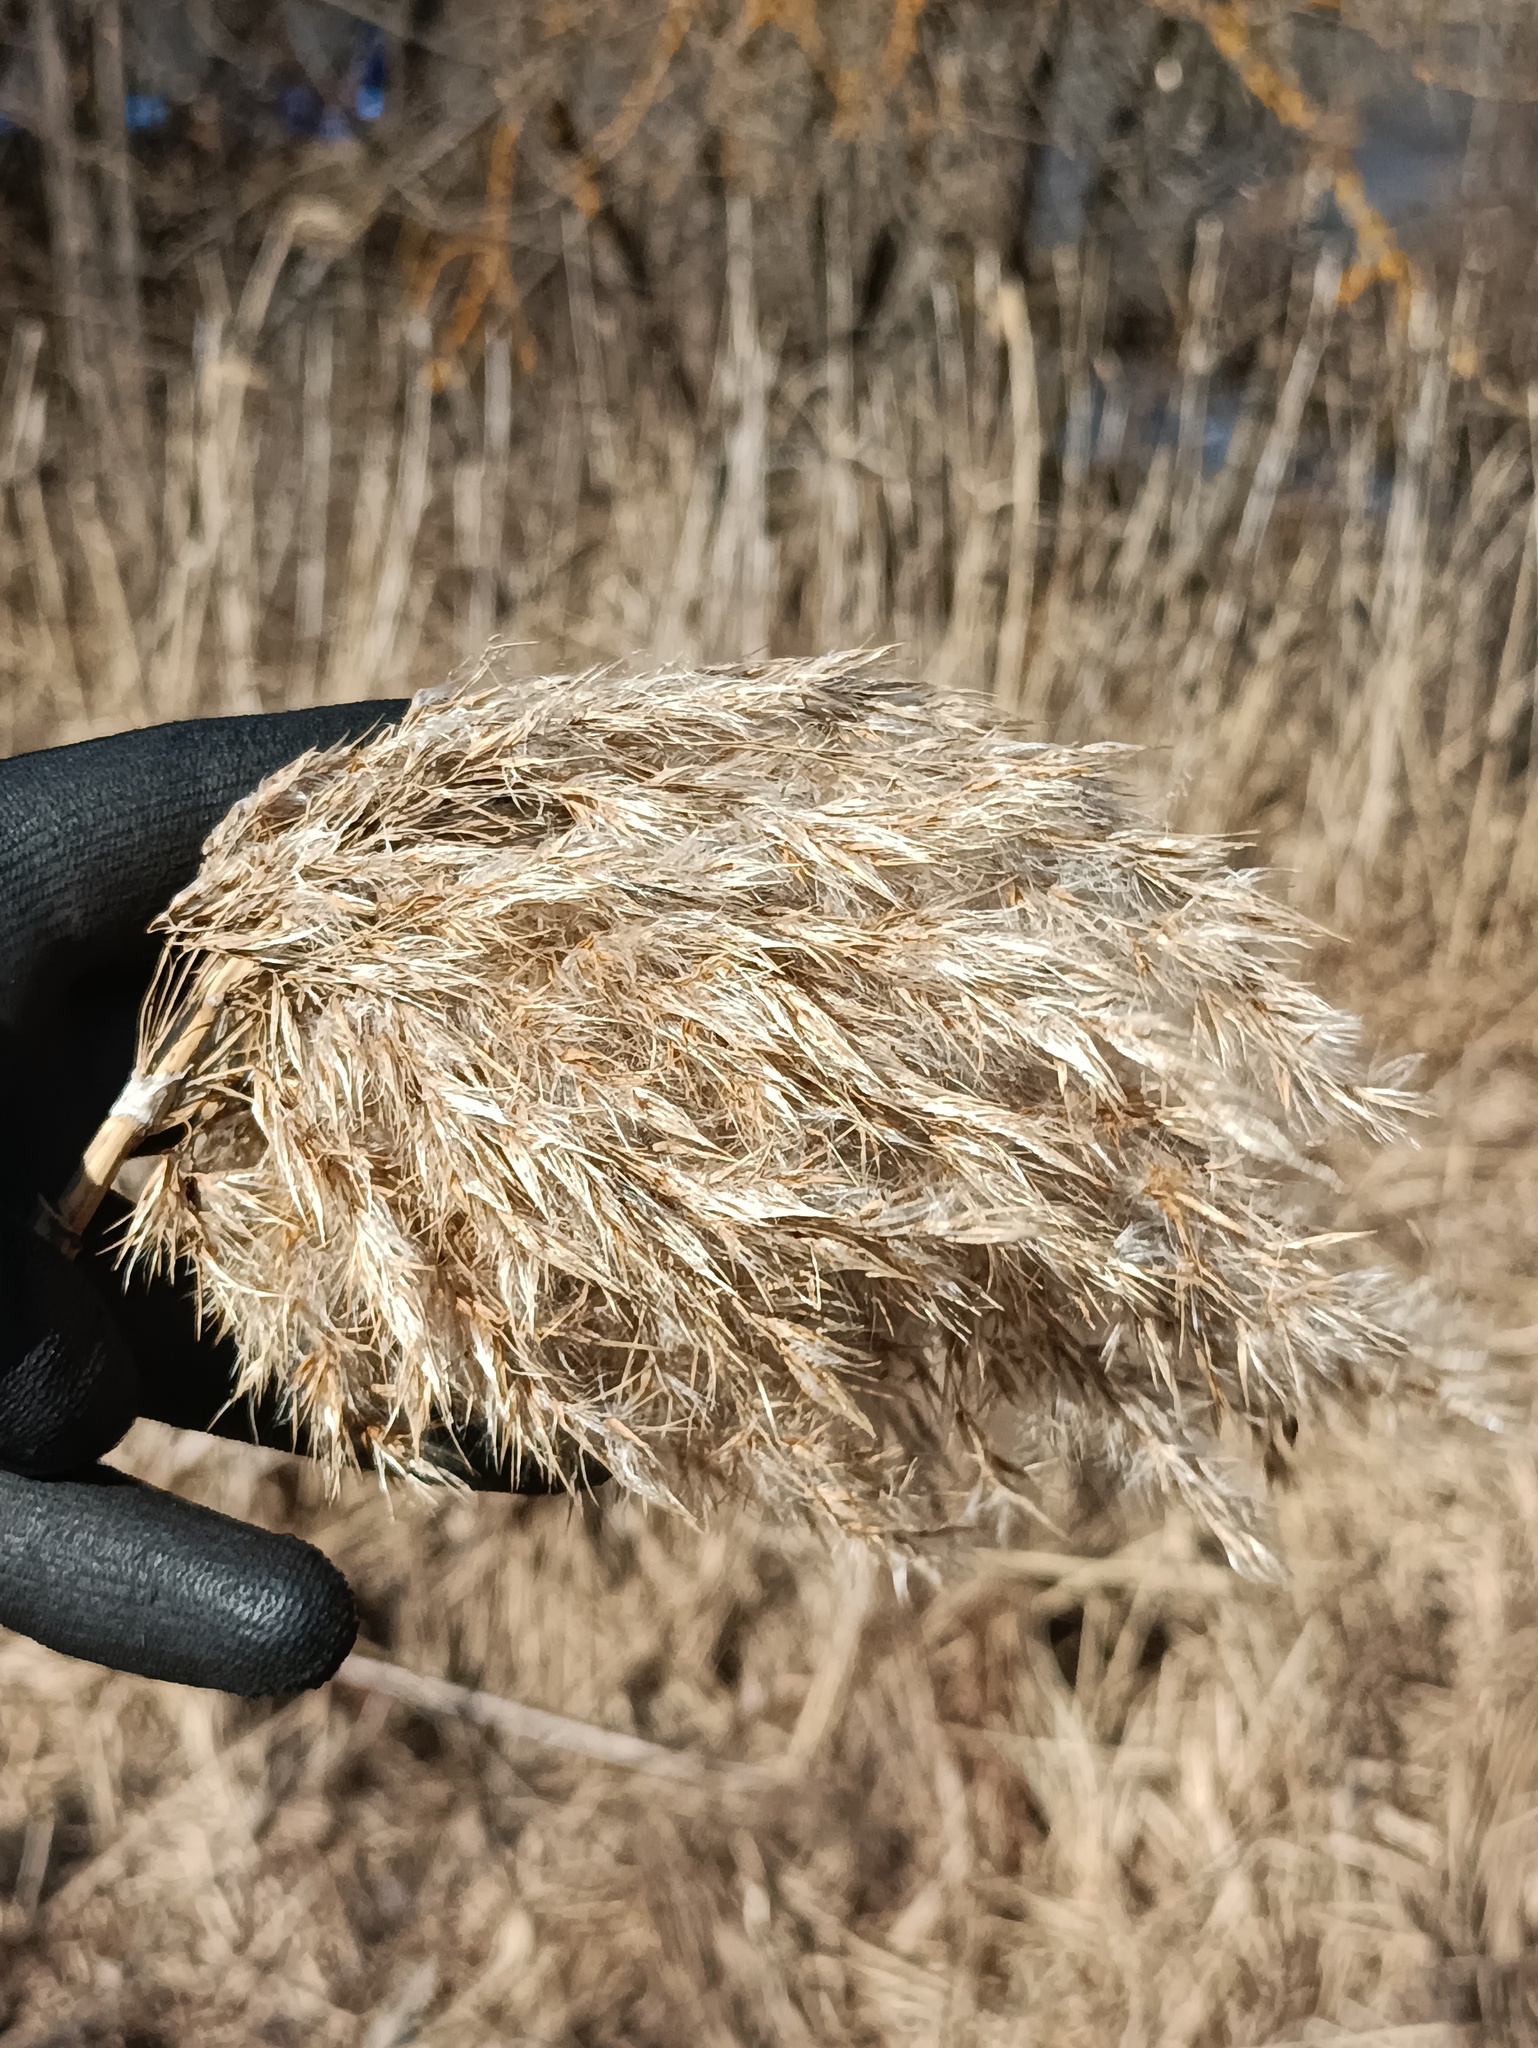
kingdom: Plantae
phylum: Tracheophyta
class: Liliopsida
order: Poales
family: Poaceae
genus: Phragmites
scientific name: Phragmites australis
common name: Common reed
